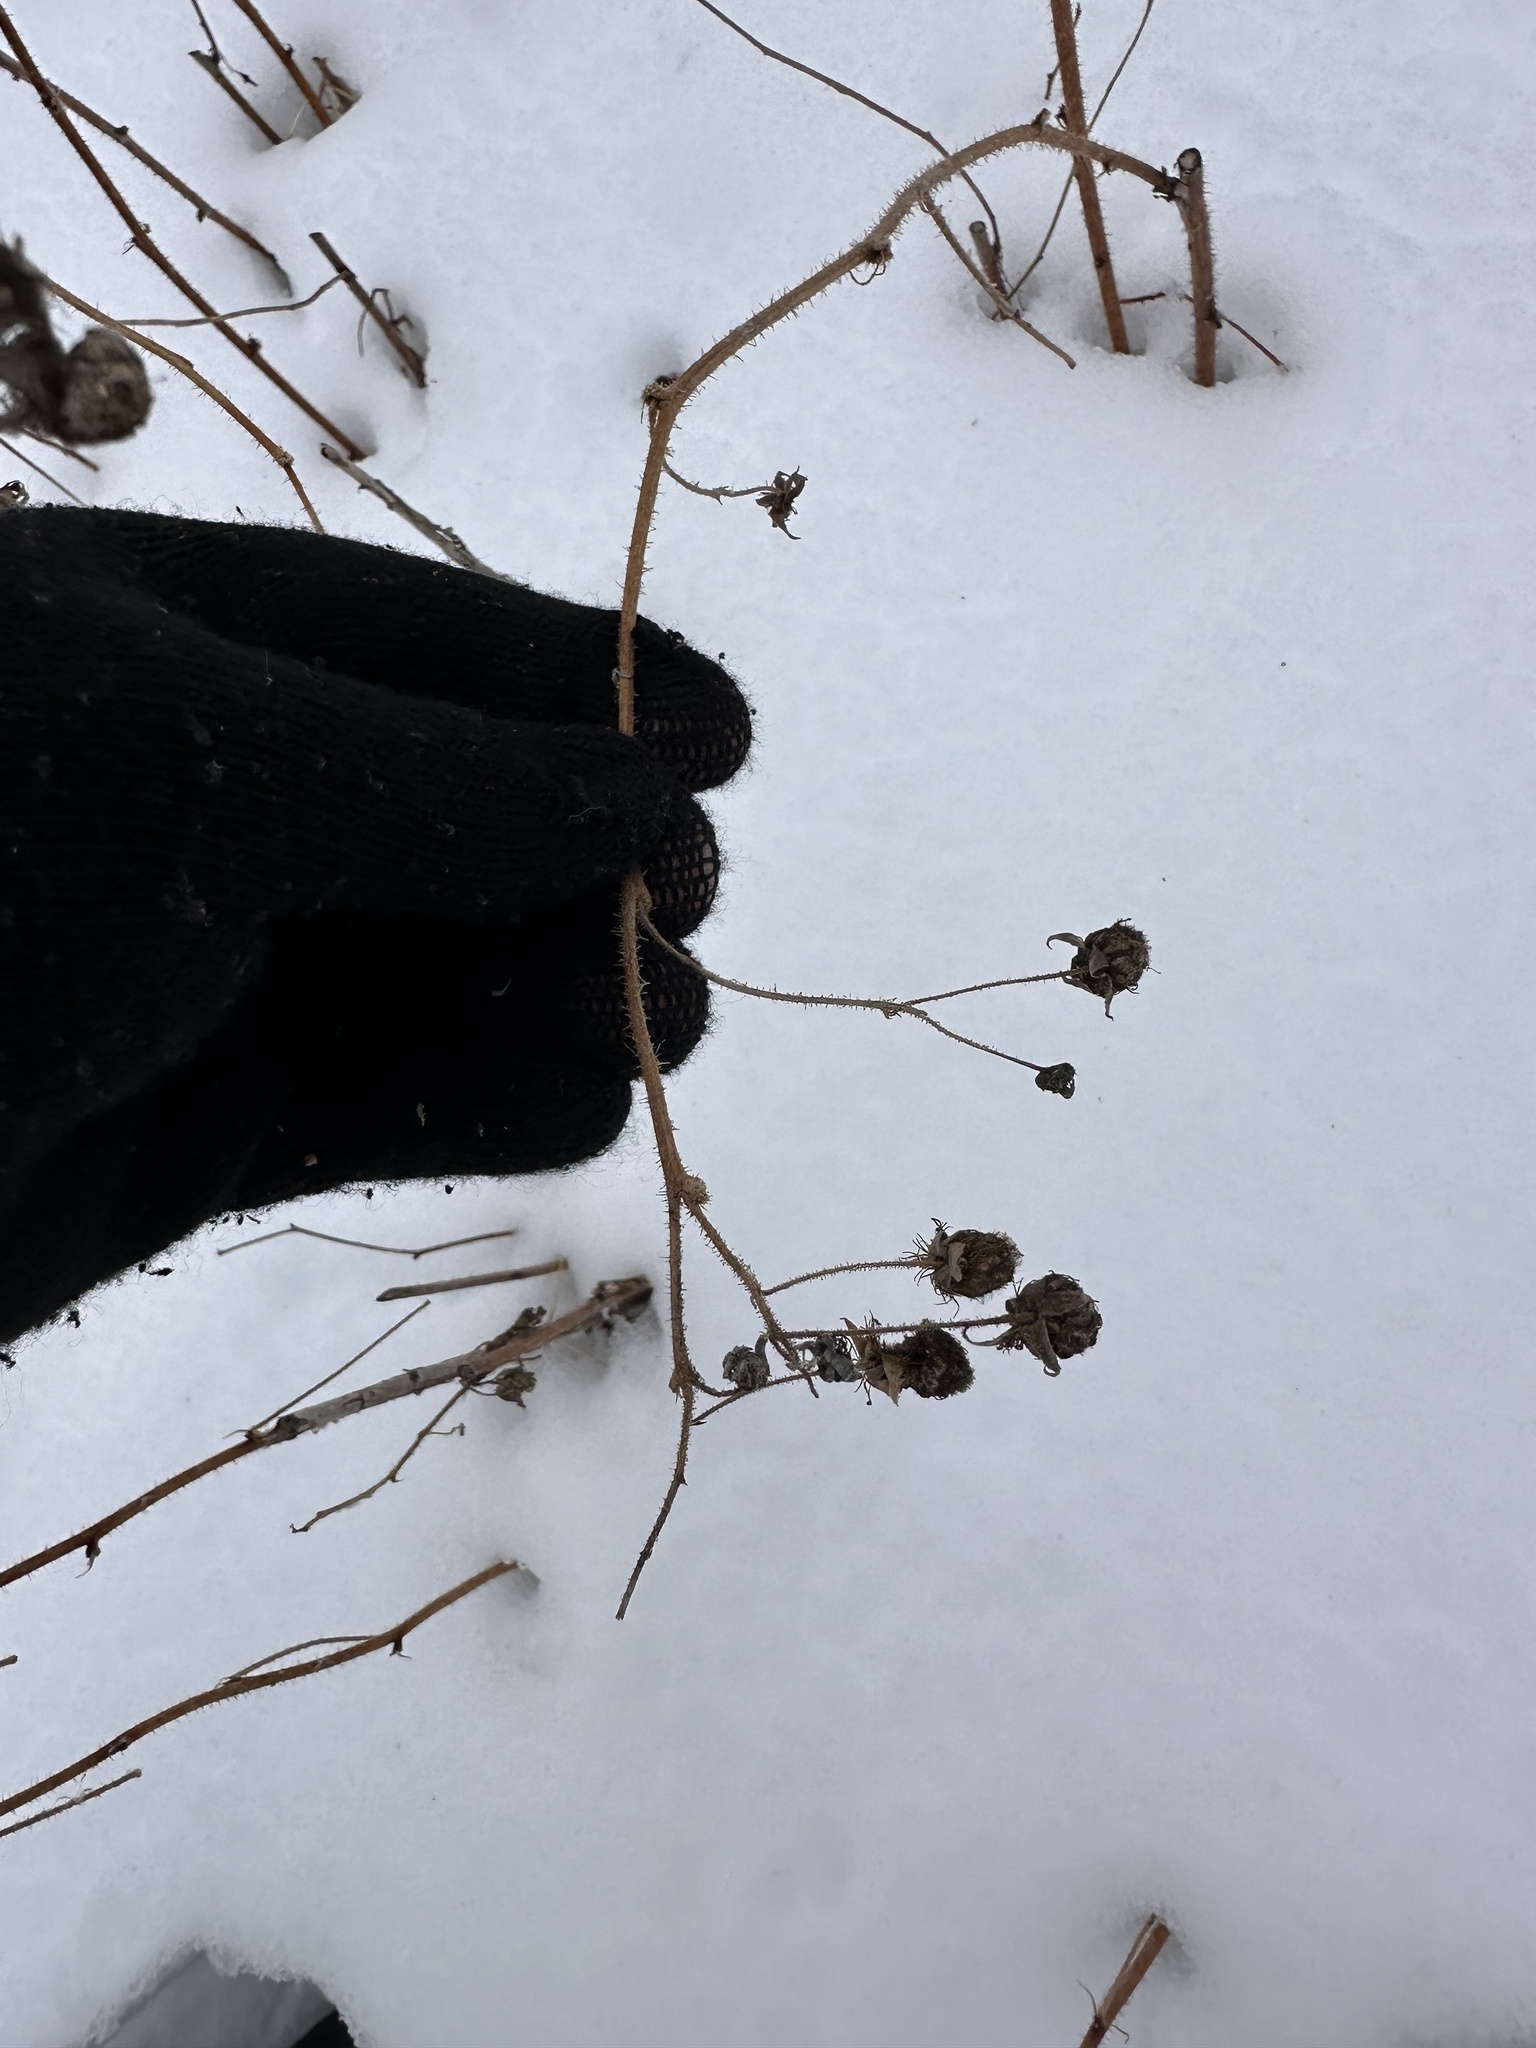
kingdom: Plantae
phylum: Tracheophyta
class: Magnoliopsida
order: Rosales
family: Rosaceae
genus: Rubus
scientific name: Rubus idaeus
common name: Raspberry
